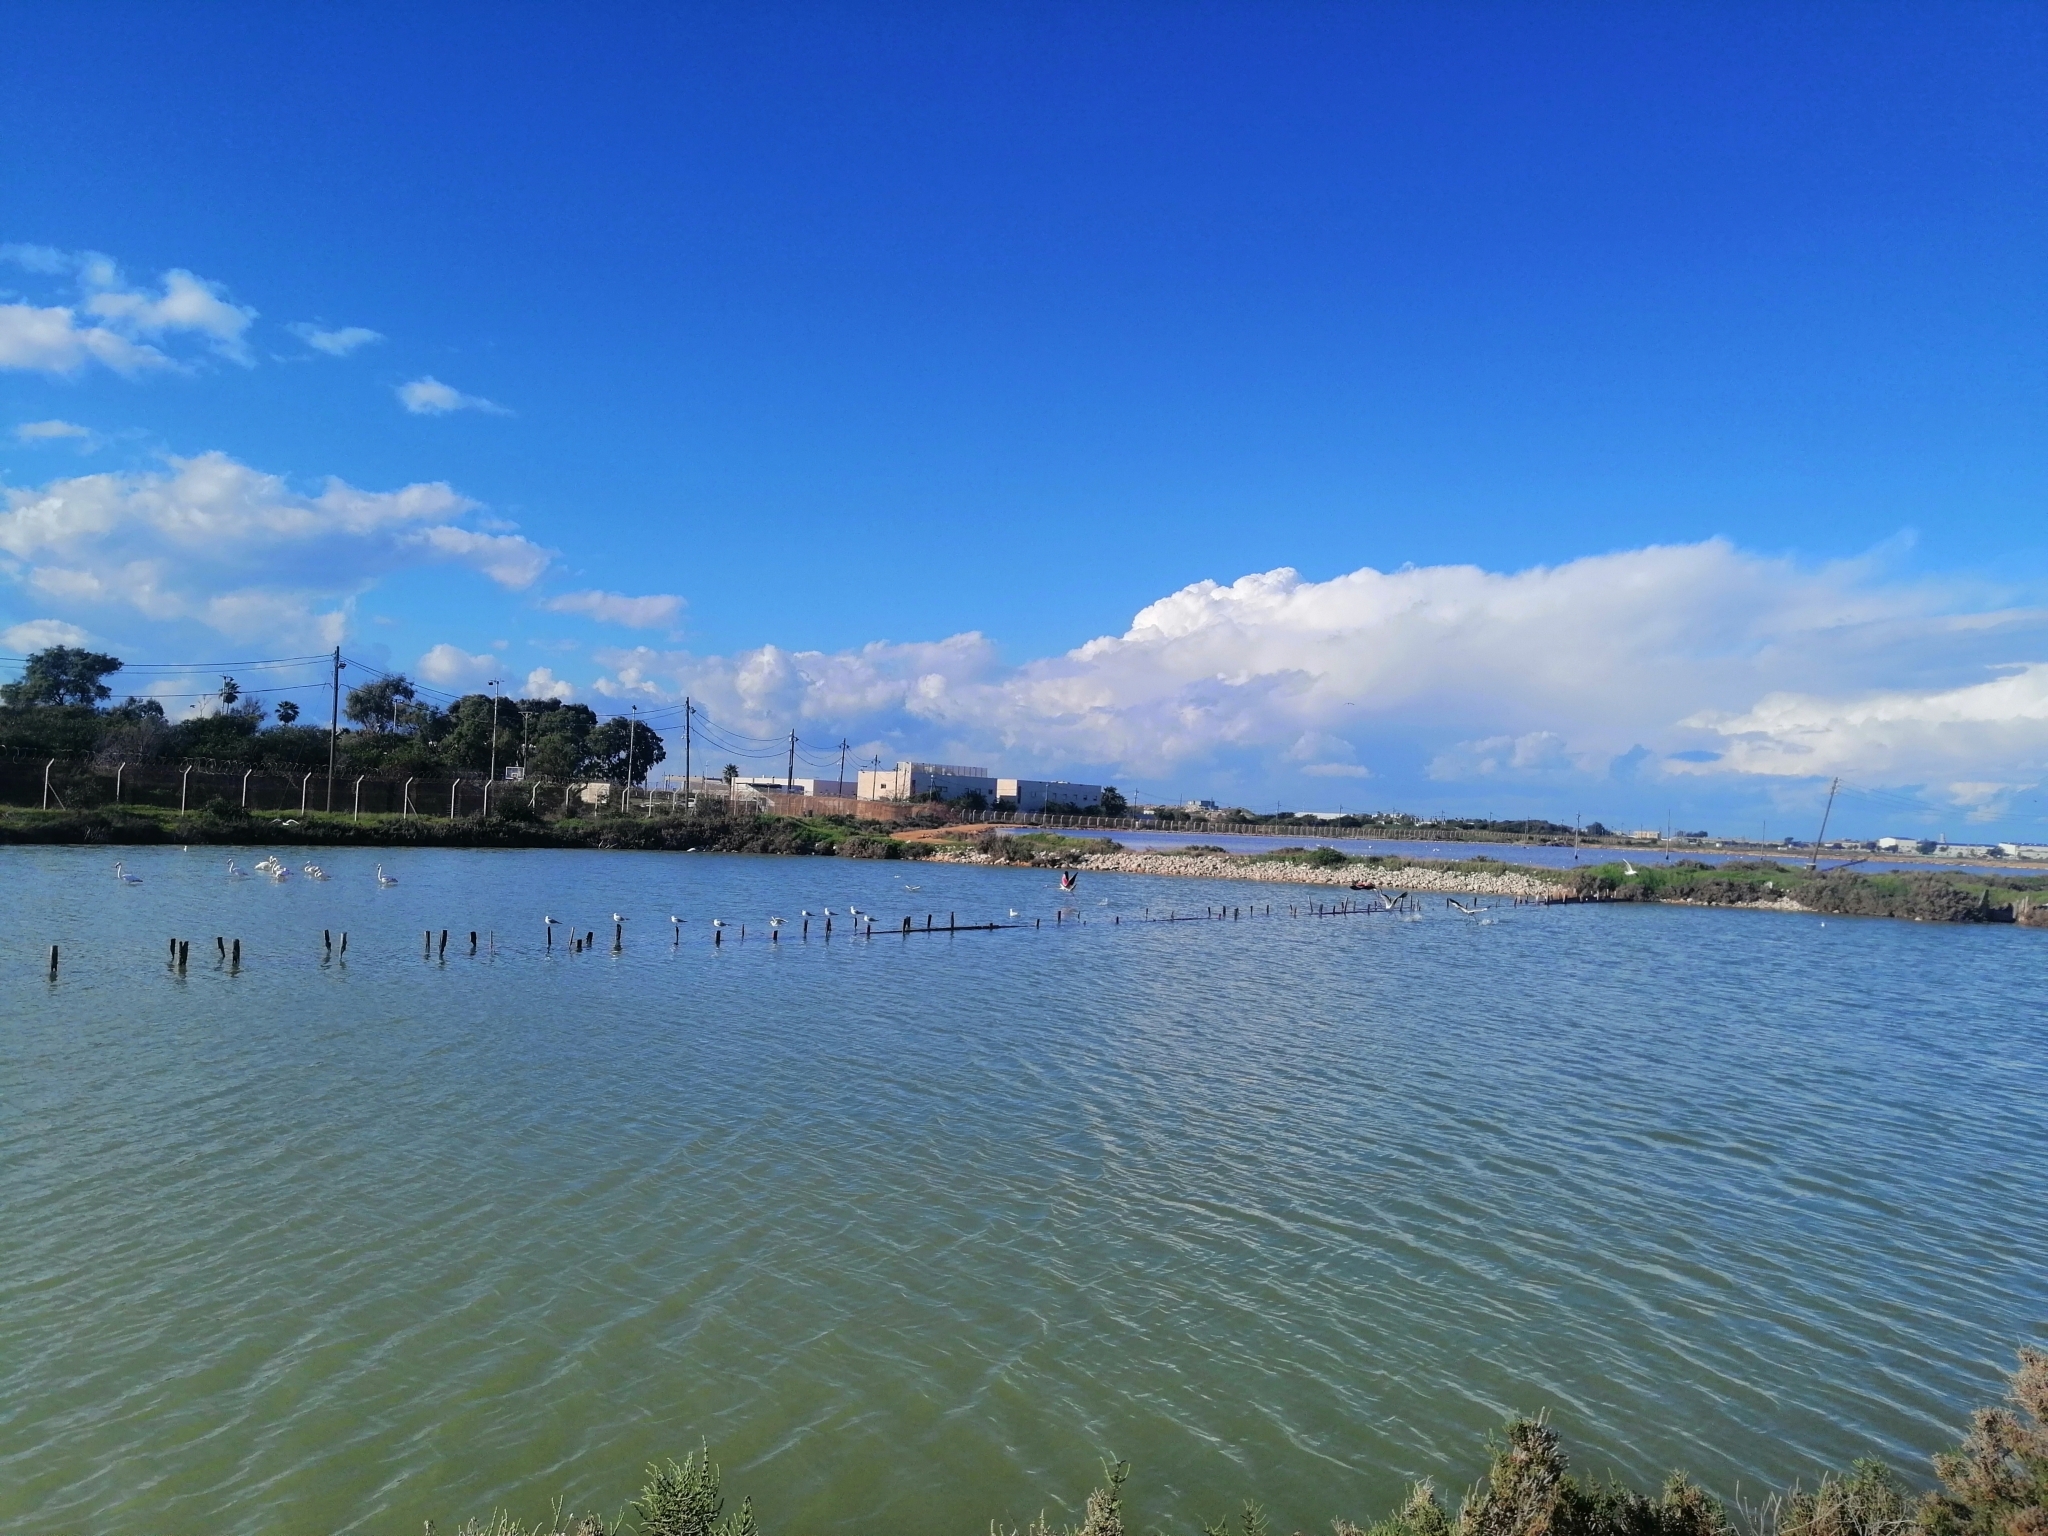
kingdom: Animalia
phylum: Chordata
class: Aves
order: Phoenicopteriformes
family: Phoenicopteridae
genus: Phoenicopterus
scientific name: Phoenicopterus roseus
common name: Greater flamingo
